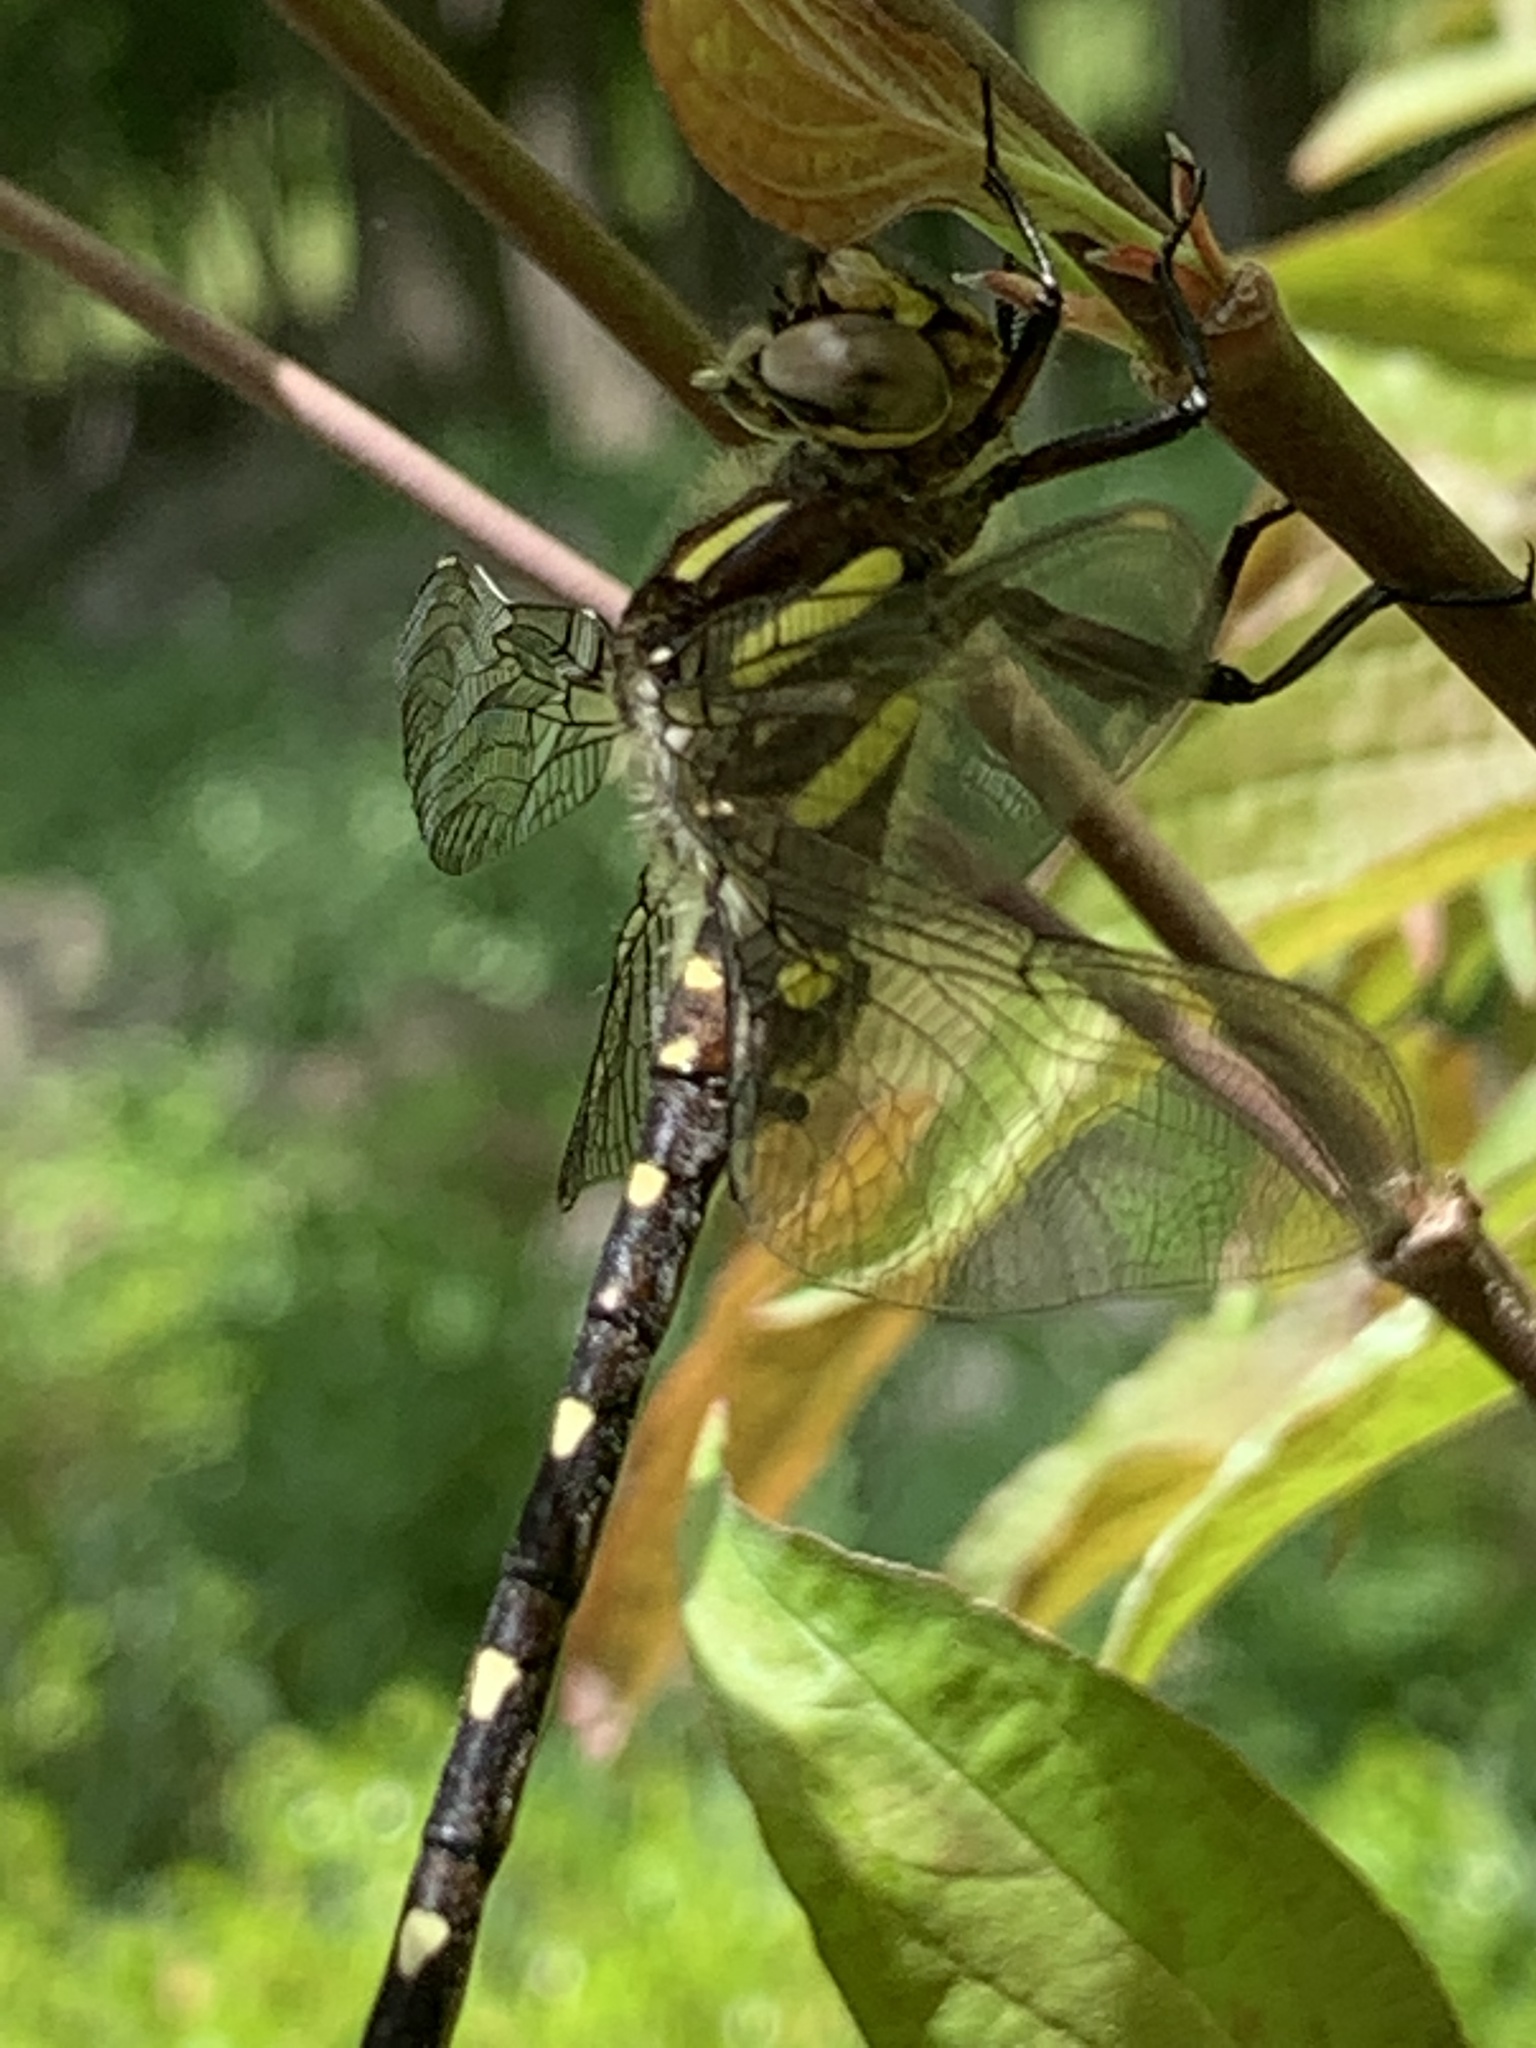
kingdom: Animalia
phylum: Arthropoda
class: Insecta
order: Odonata
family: Cordulegastridae
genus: Cordulegaster
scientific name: Cordulegaster maculata
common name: Twin-spotted spiketail
